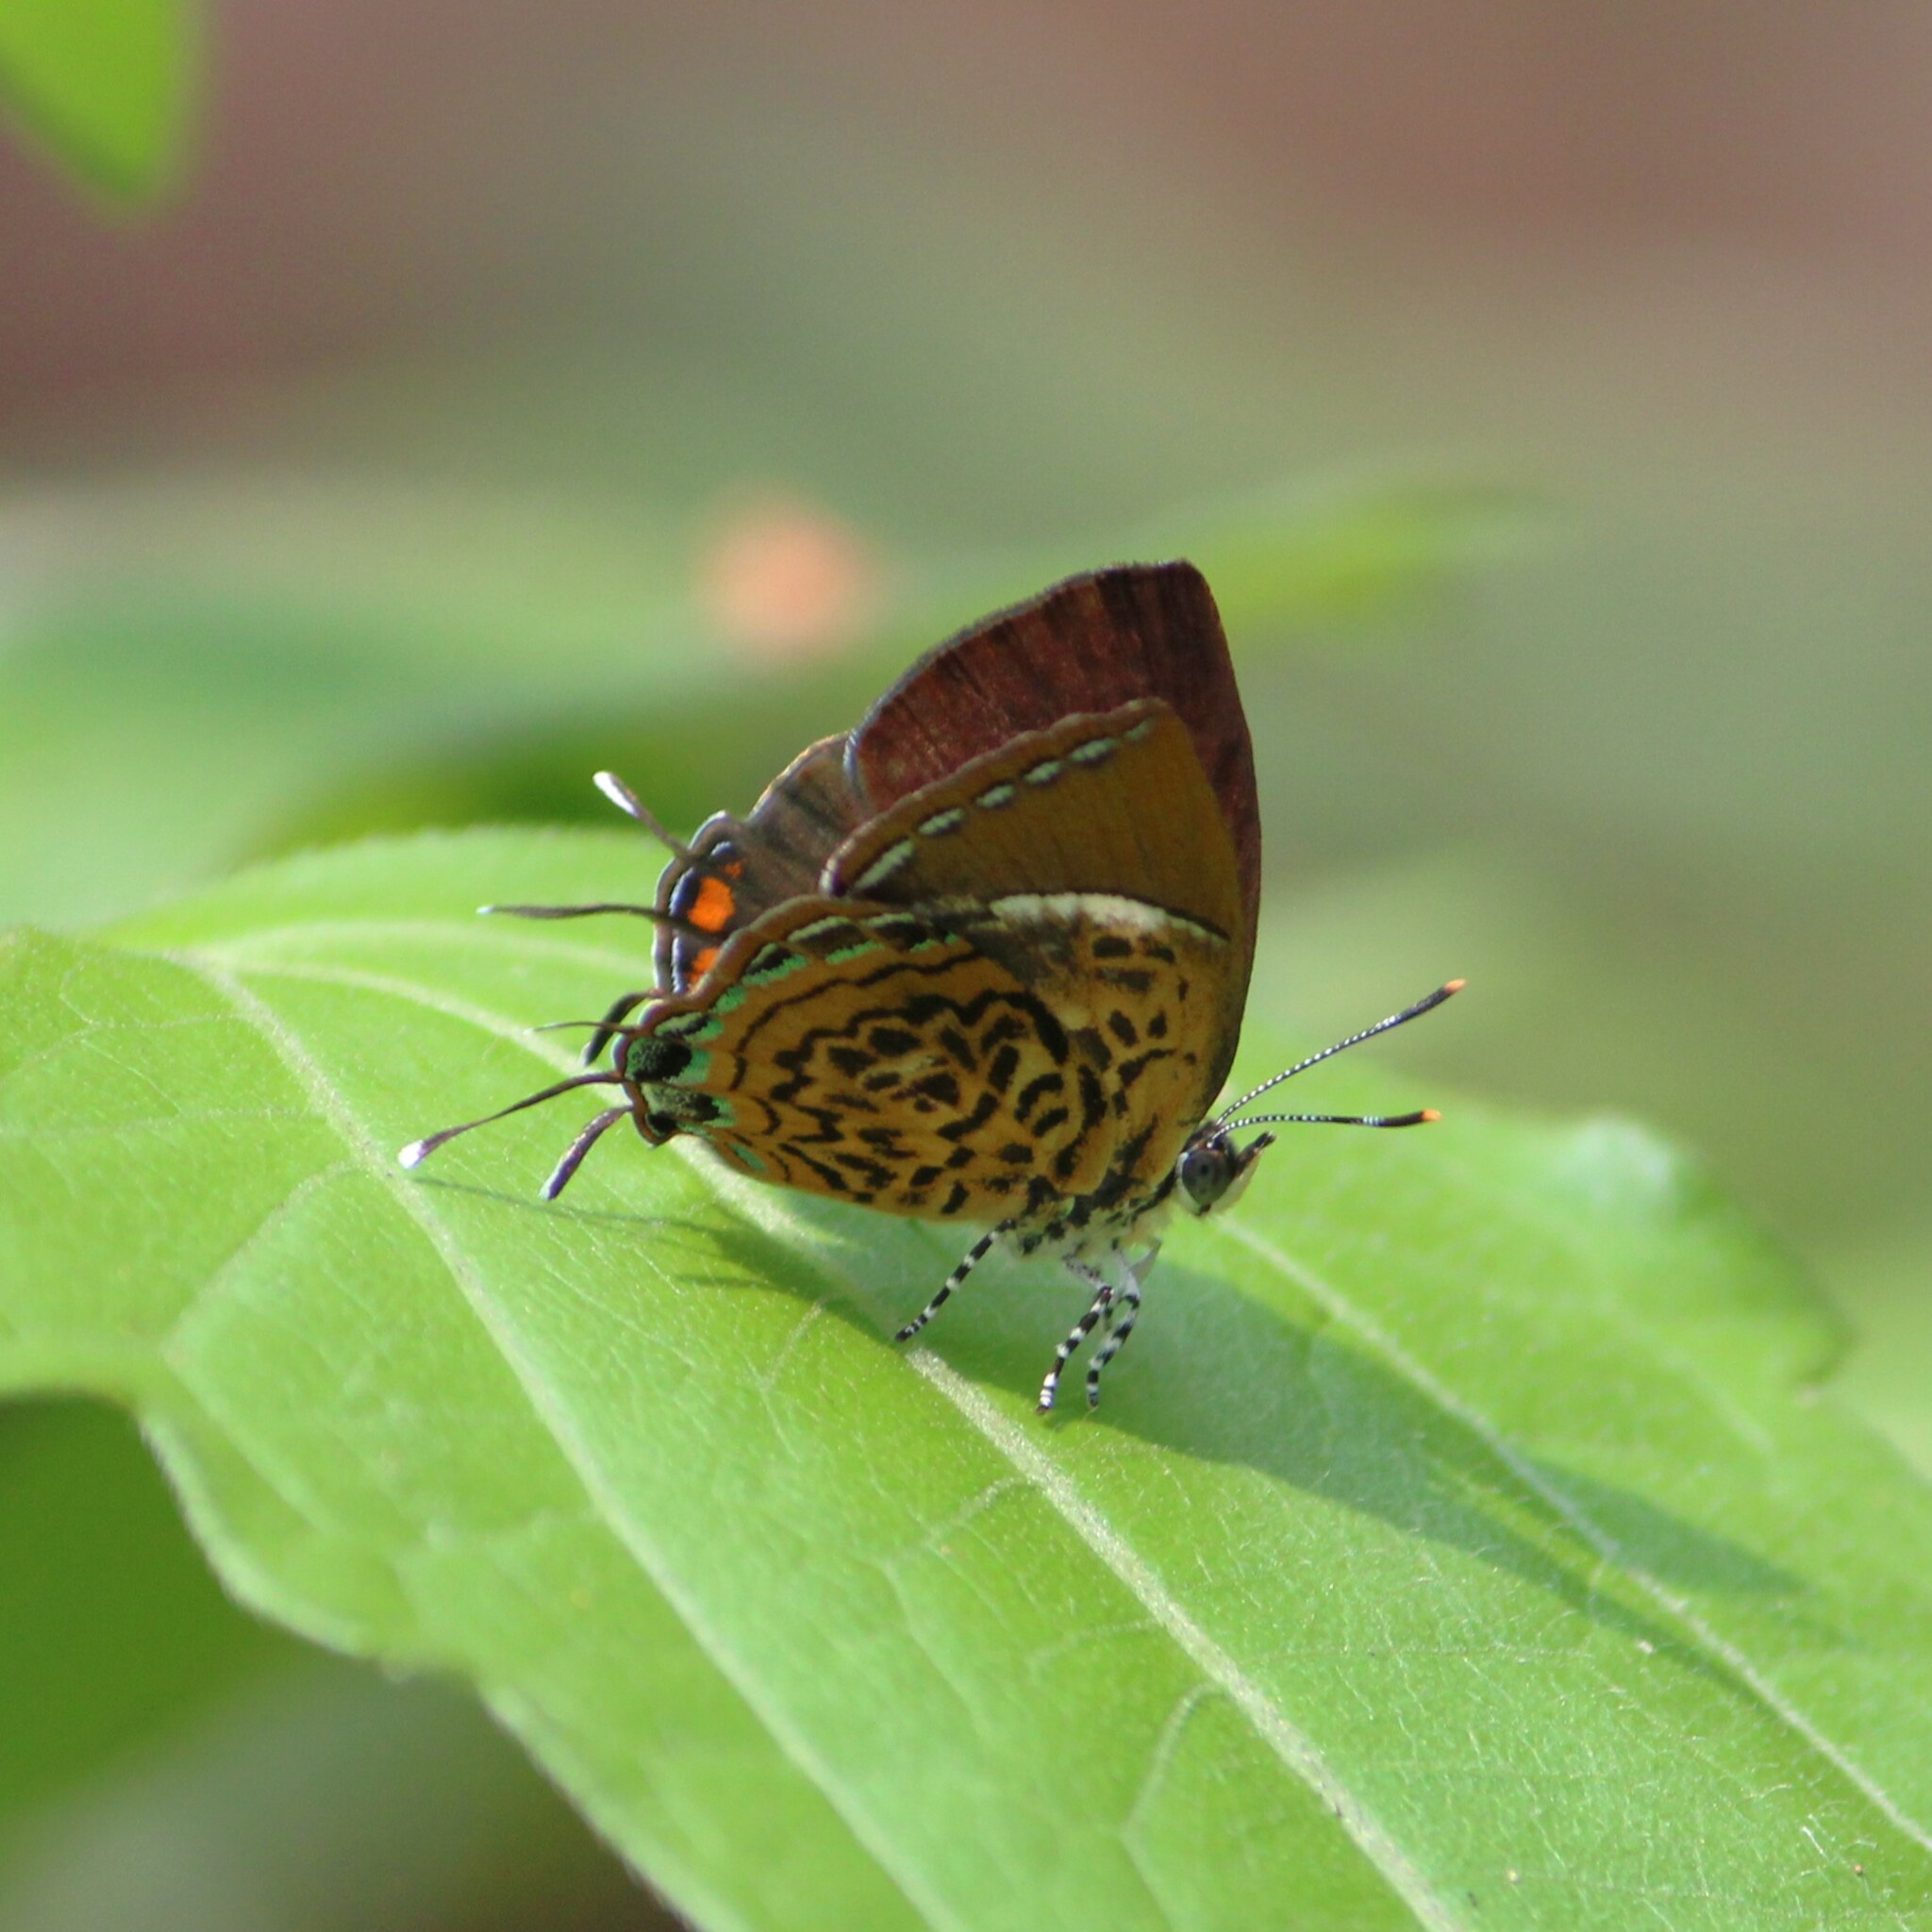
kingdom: Animalia
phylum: Arthropoda
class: Insecta
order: Lepidoptera
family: Lycaenidae
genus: Rathinda
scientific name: Rathinda amor
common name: Monkey puzzle
